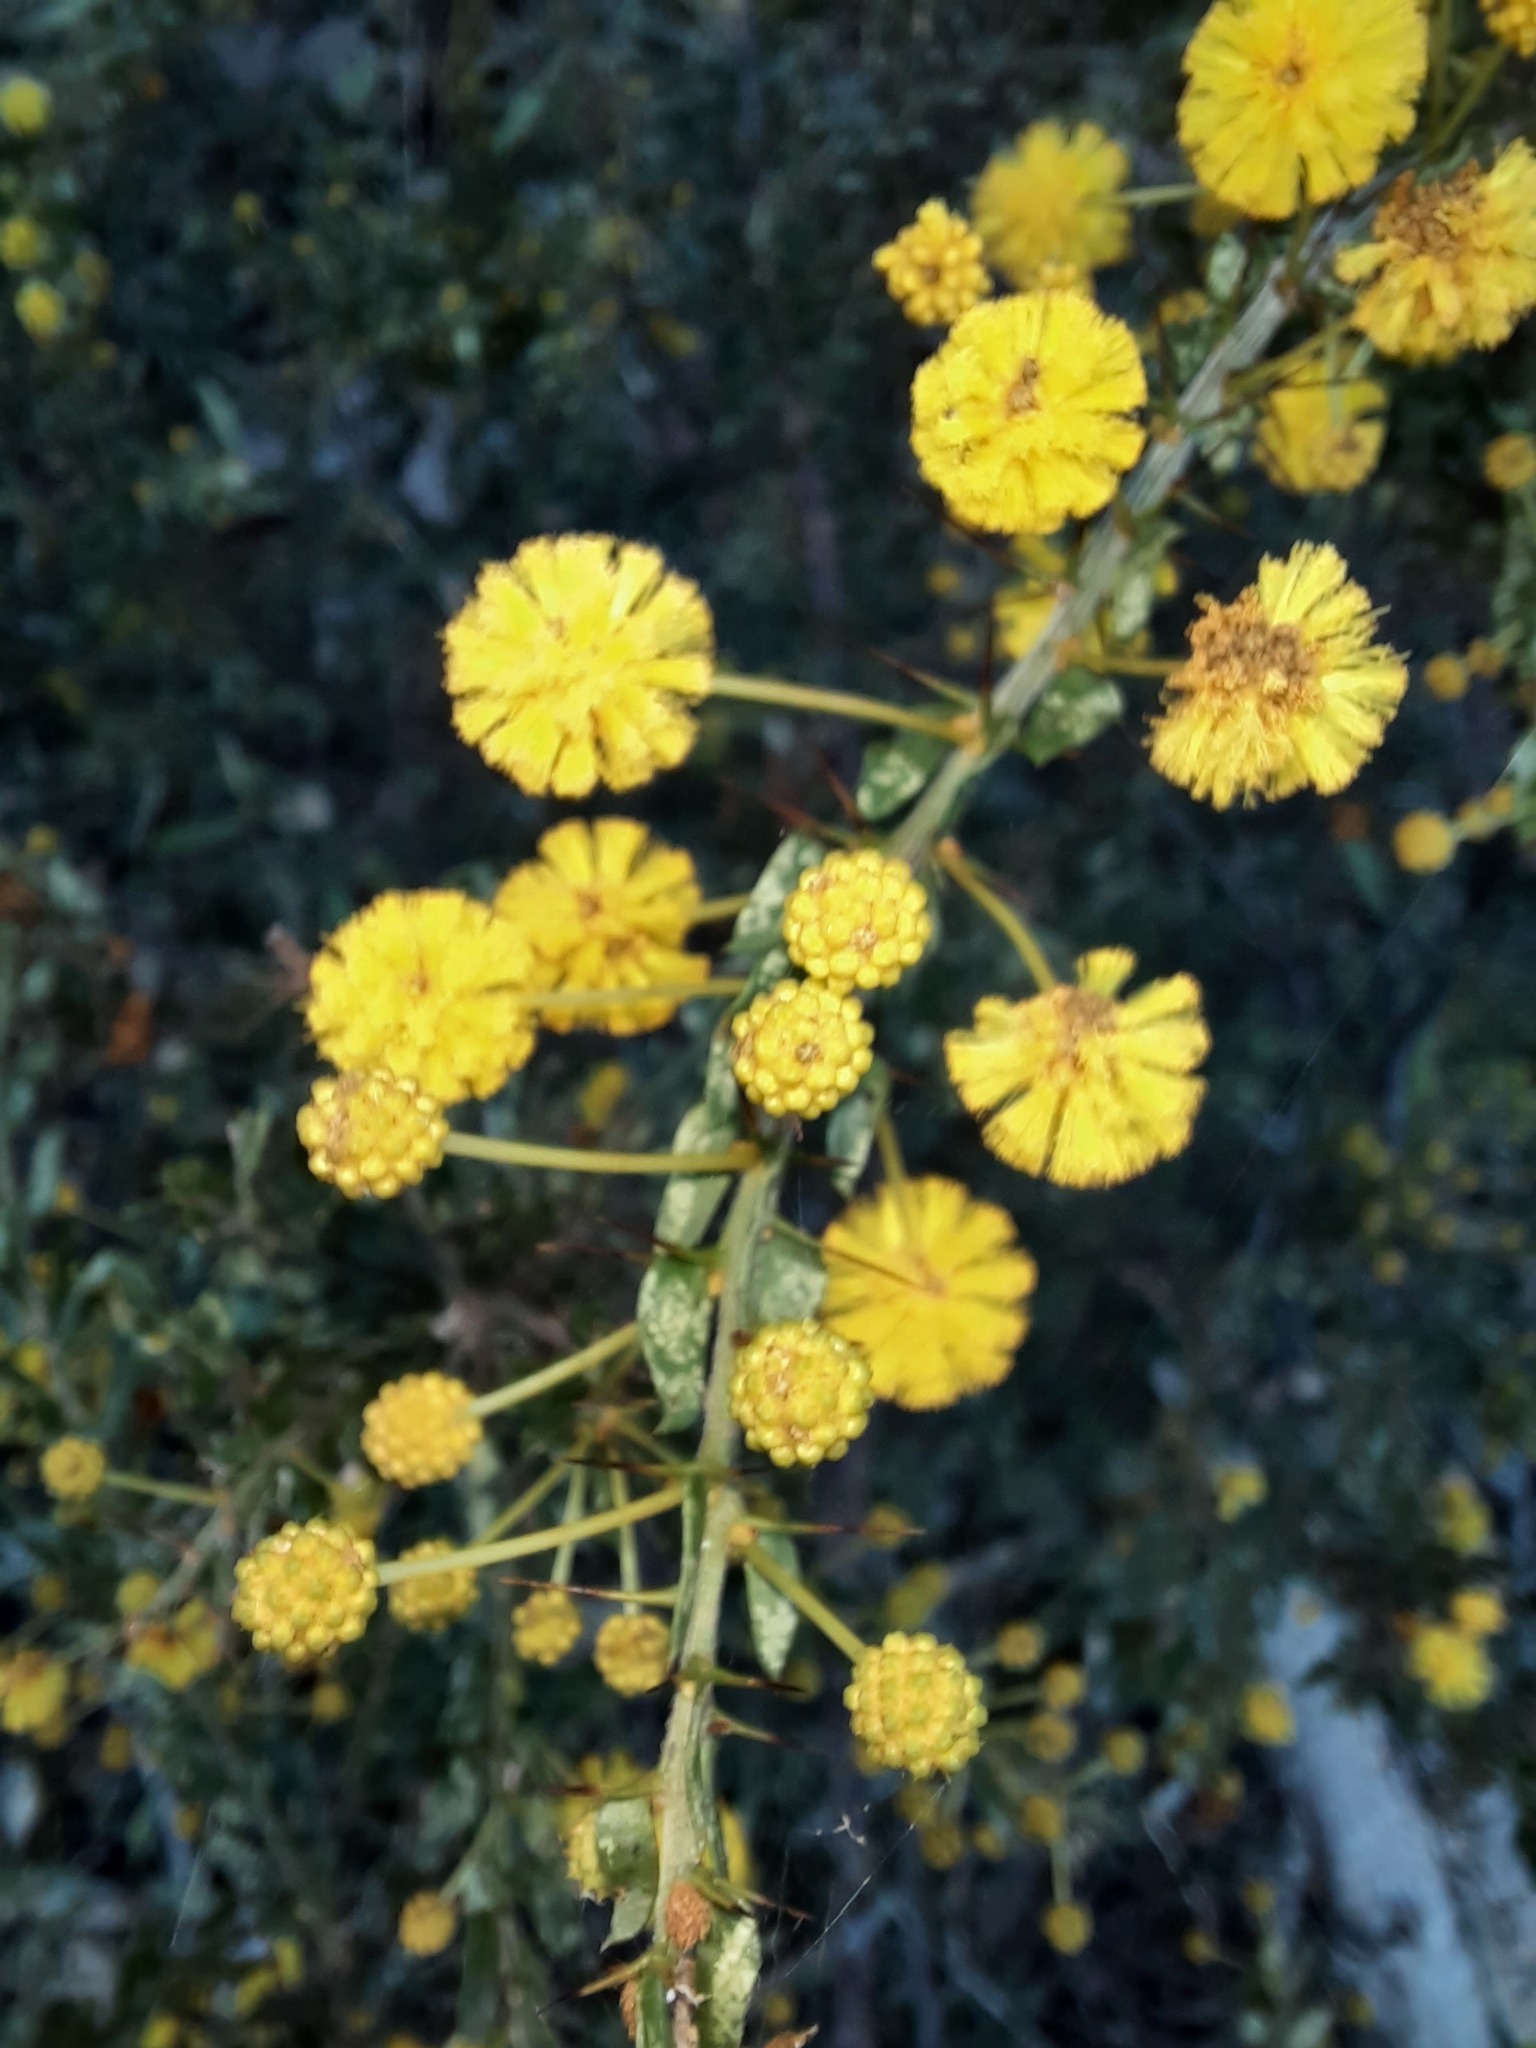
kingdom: Plantae
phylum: Tracheophyta
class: Magnoliopsida
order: Fabales
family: Fabaceae
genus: Acacia
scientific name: Acacia paradoxa
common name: Paradox acacia
